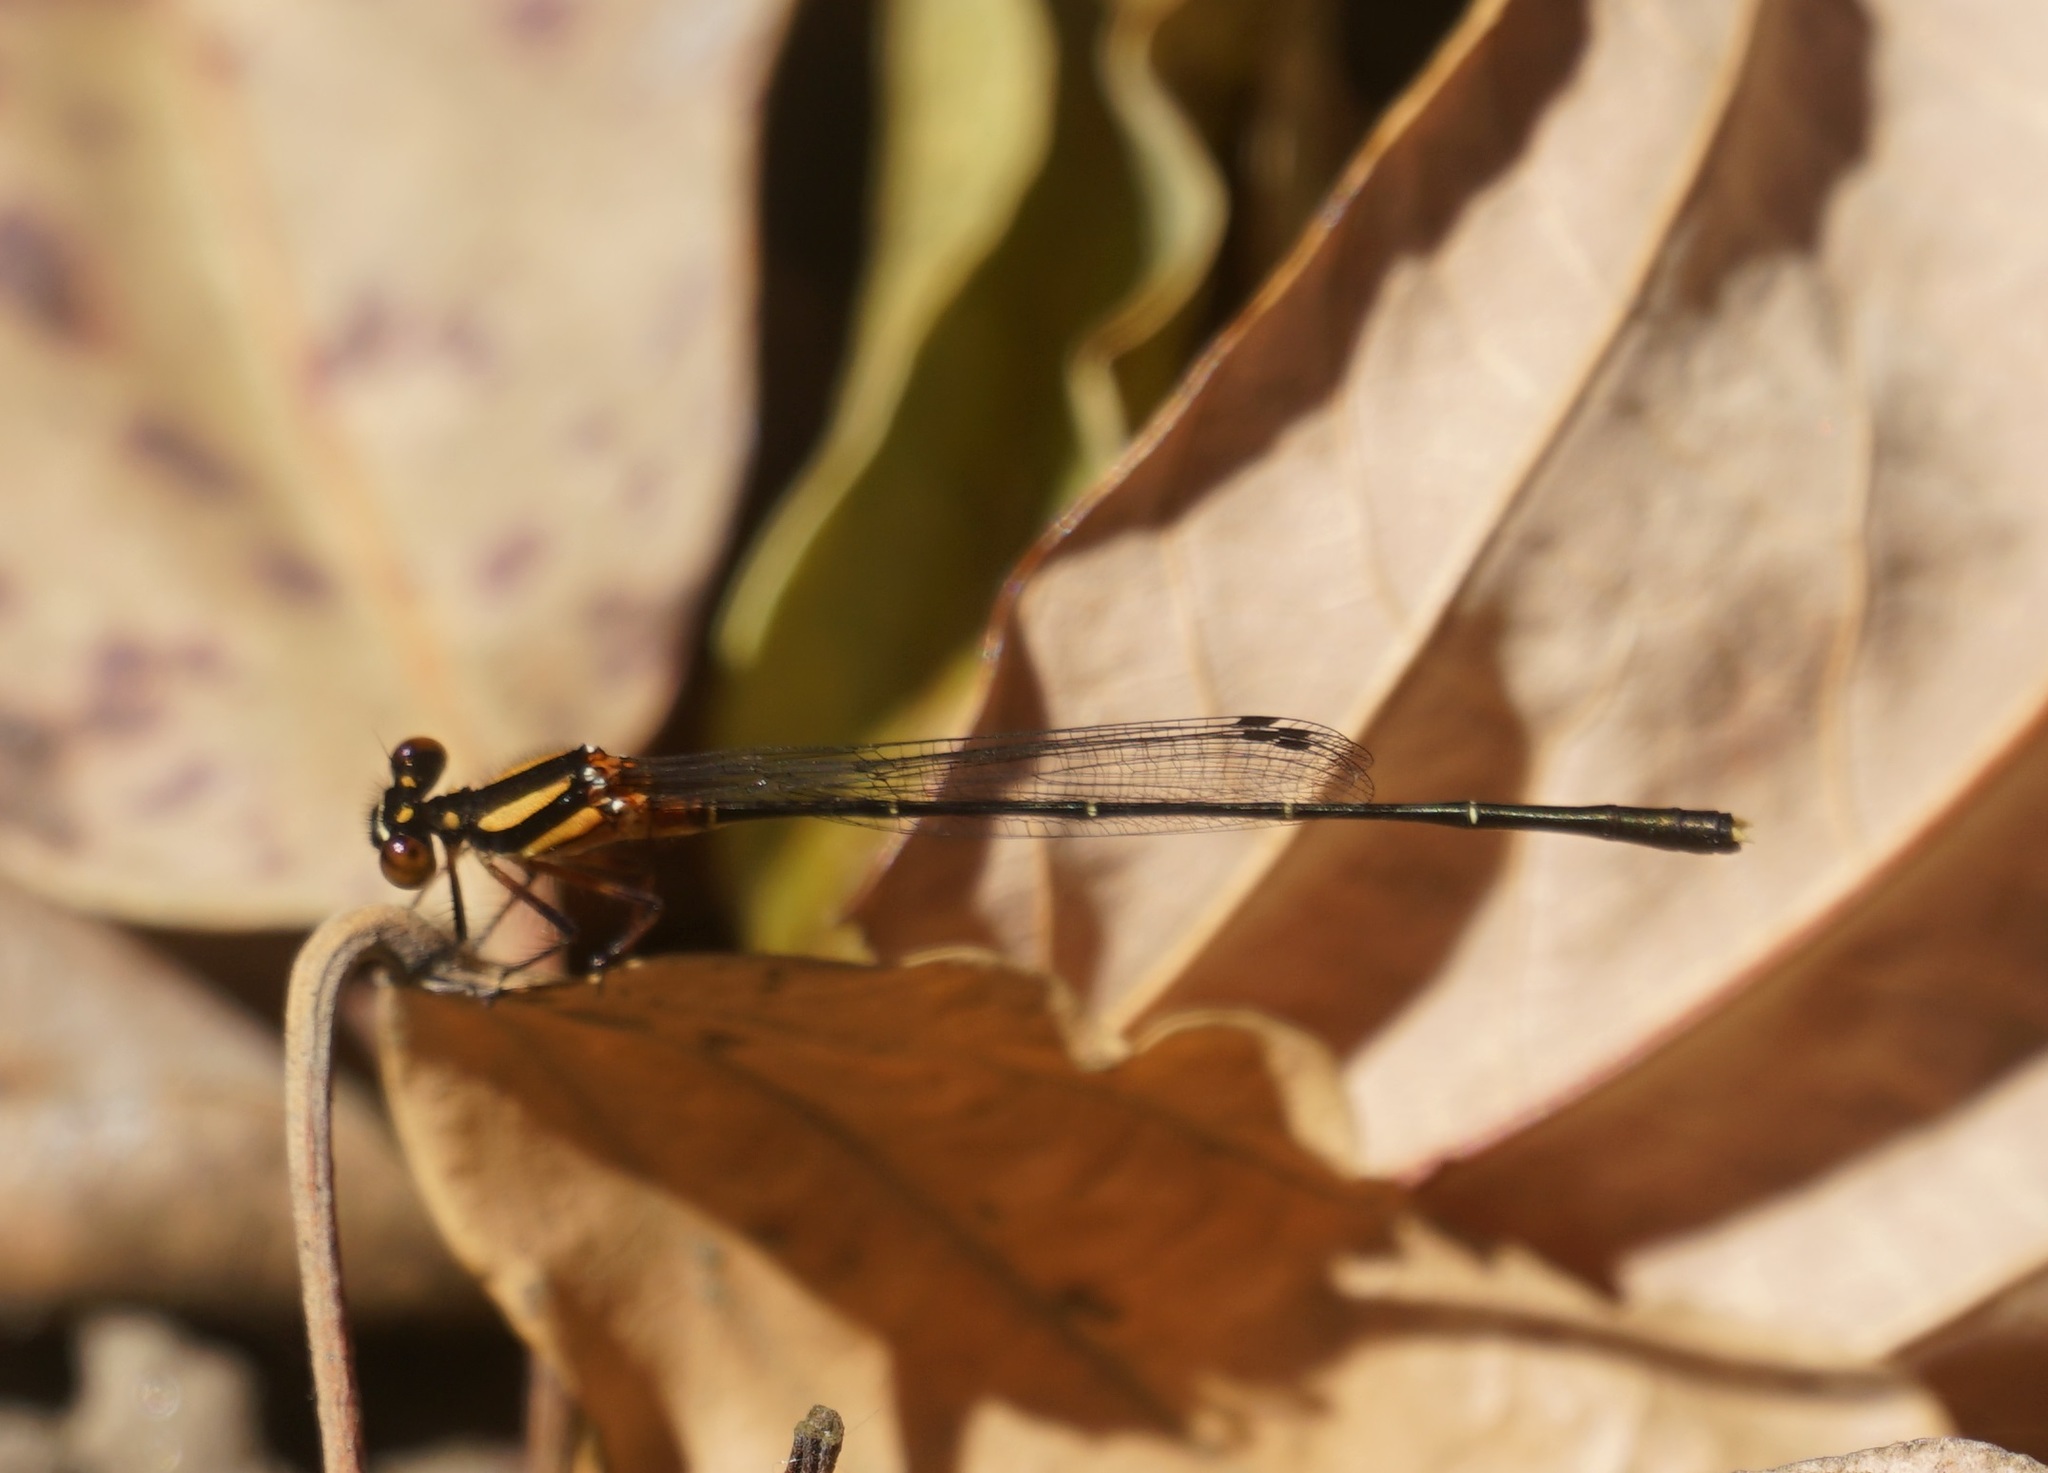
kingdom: Animalia
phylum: Arthropoda
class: Insecta
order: Odonata
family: Platycnemididae
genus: Nososticta
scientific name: Nososticta solida
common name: Orange threadtail
